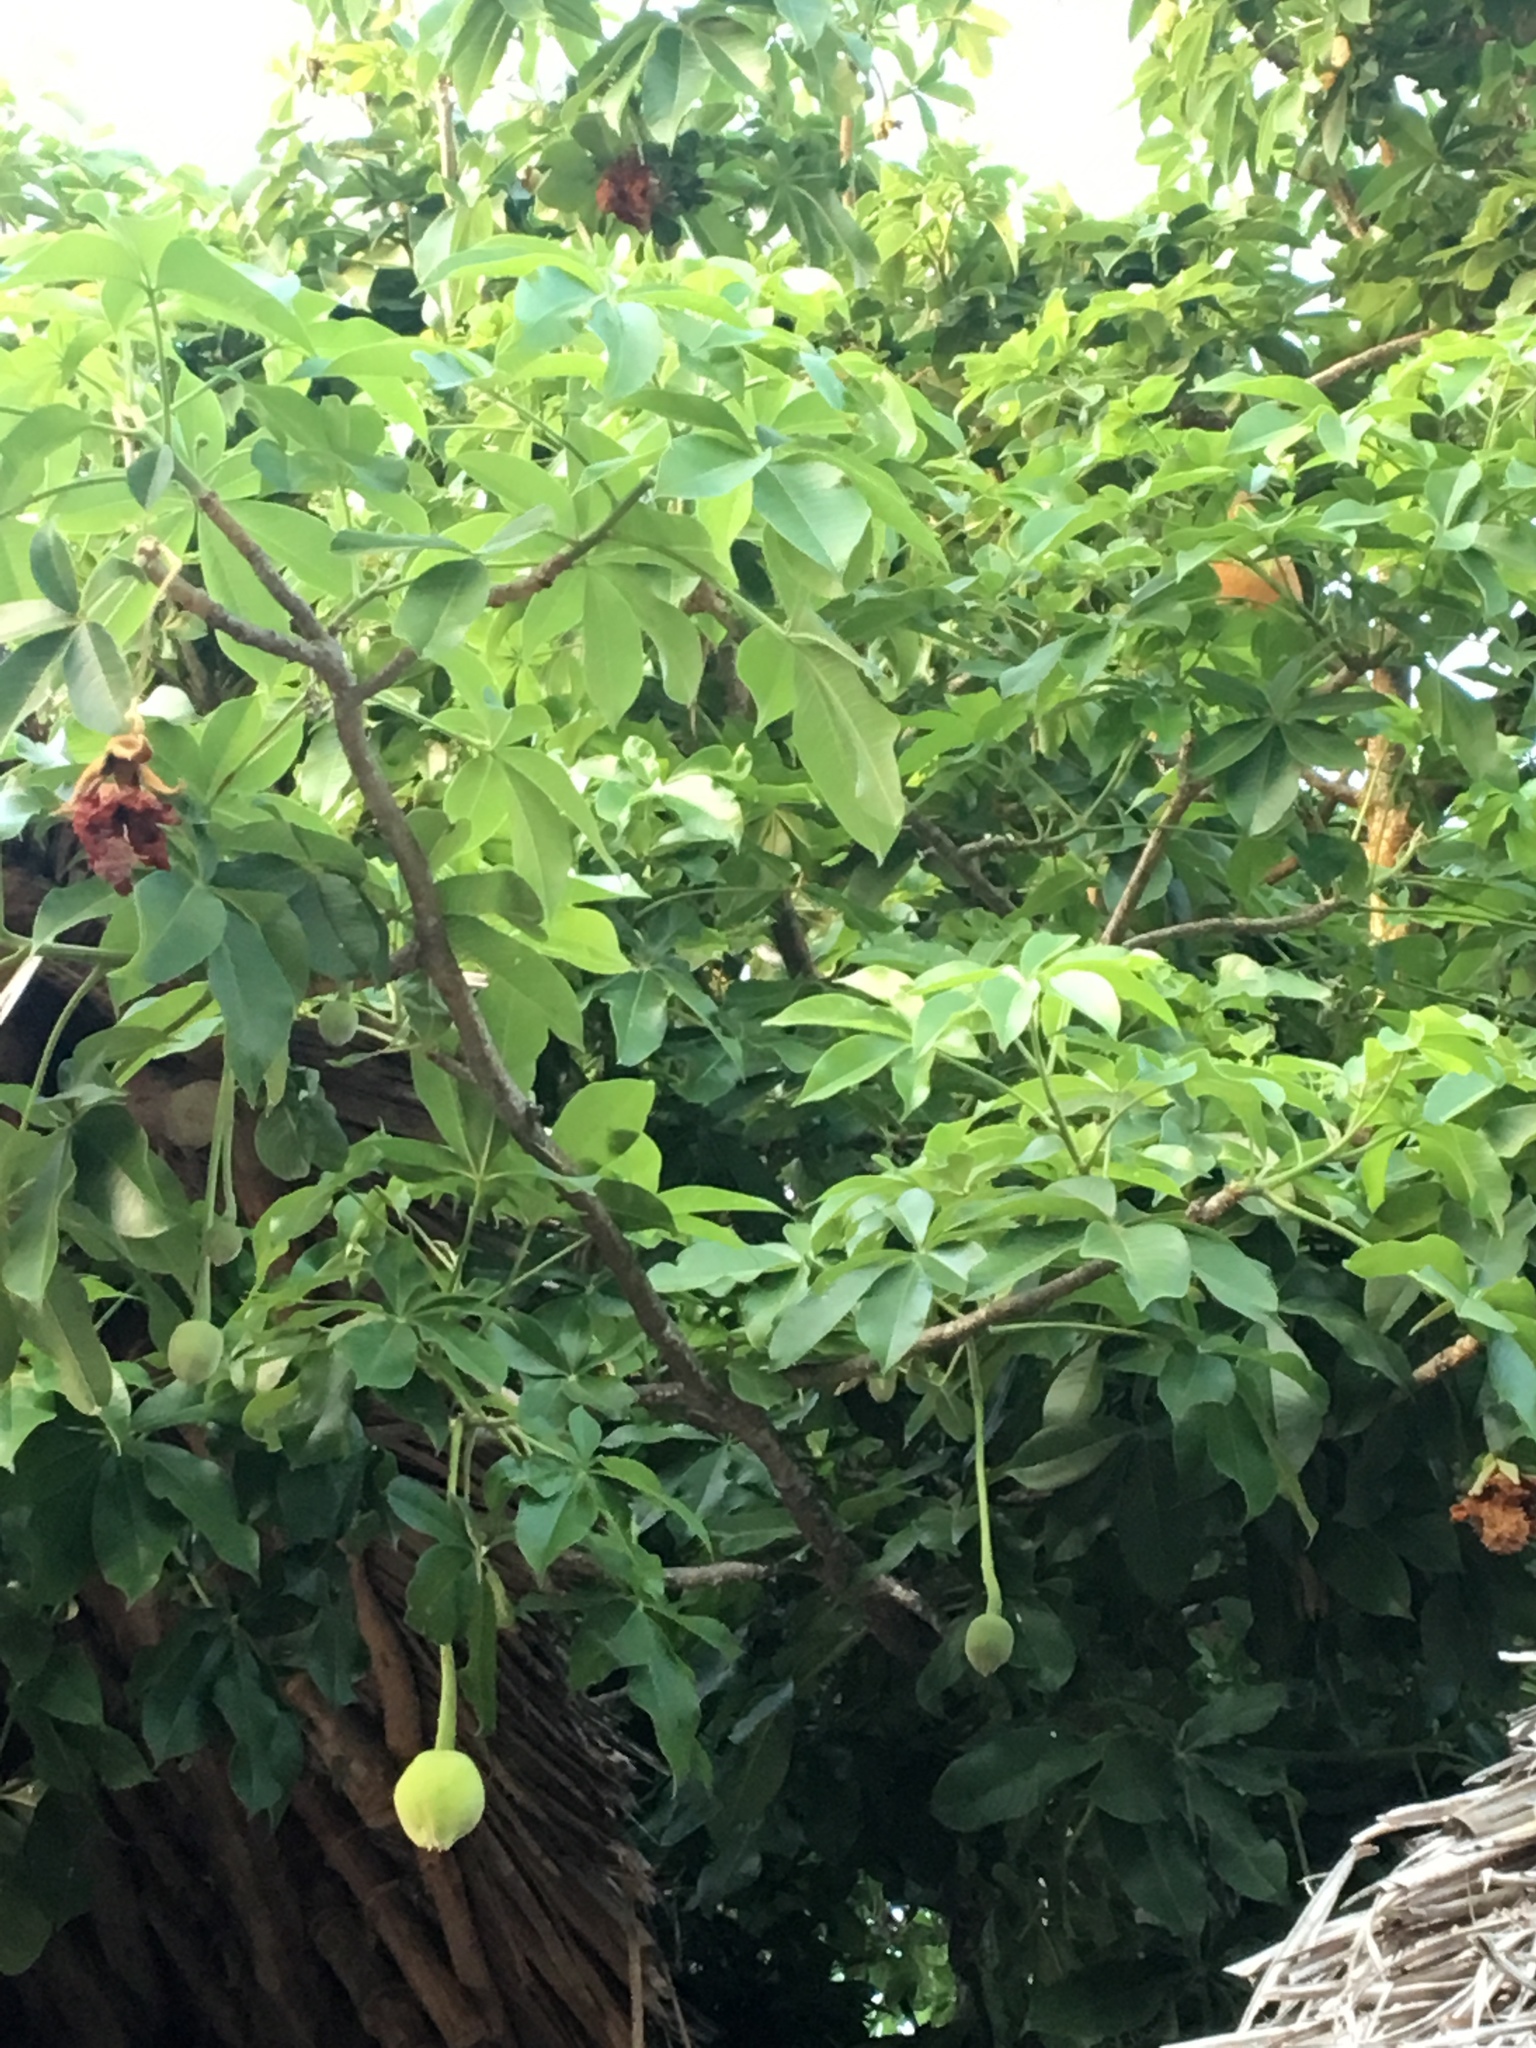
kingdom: Plantae
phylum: Tracheophyta
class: Magnoliopsida
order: Malvales
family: Malvaceae
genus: Adansonia
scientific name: Adansonia digitata
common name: Dead-rat-tree
